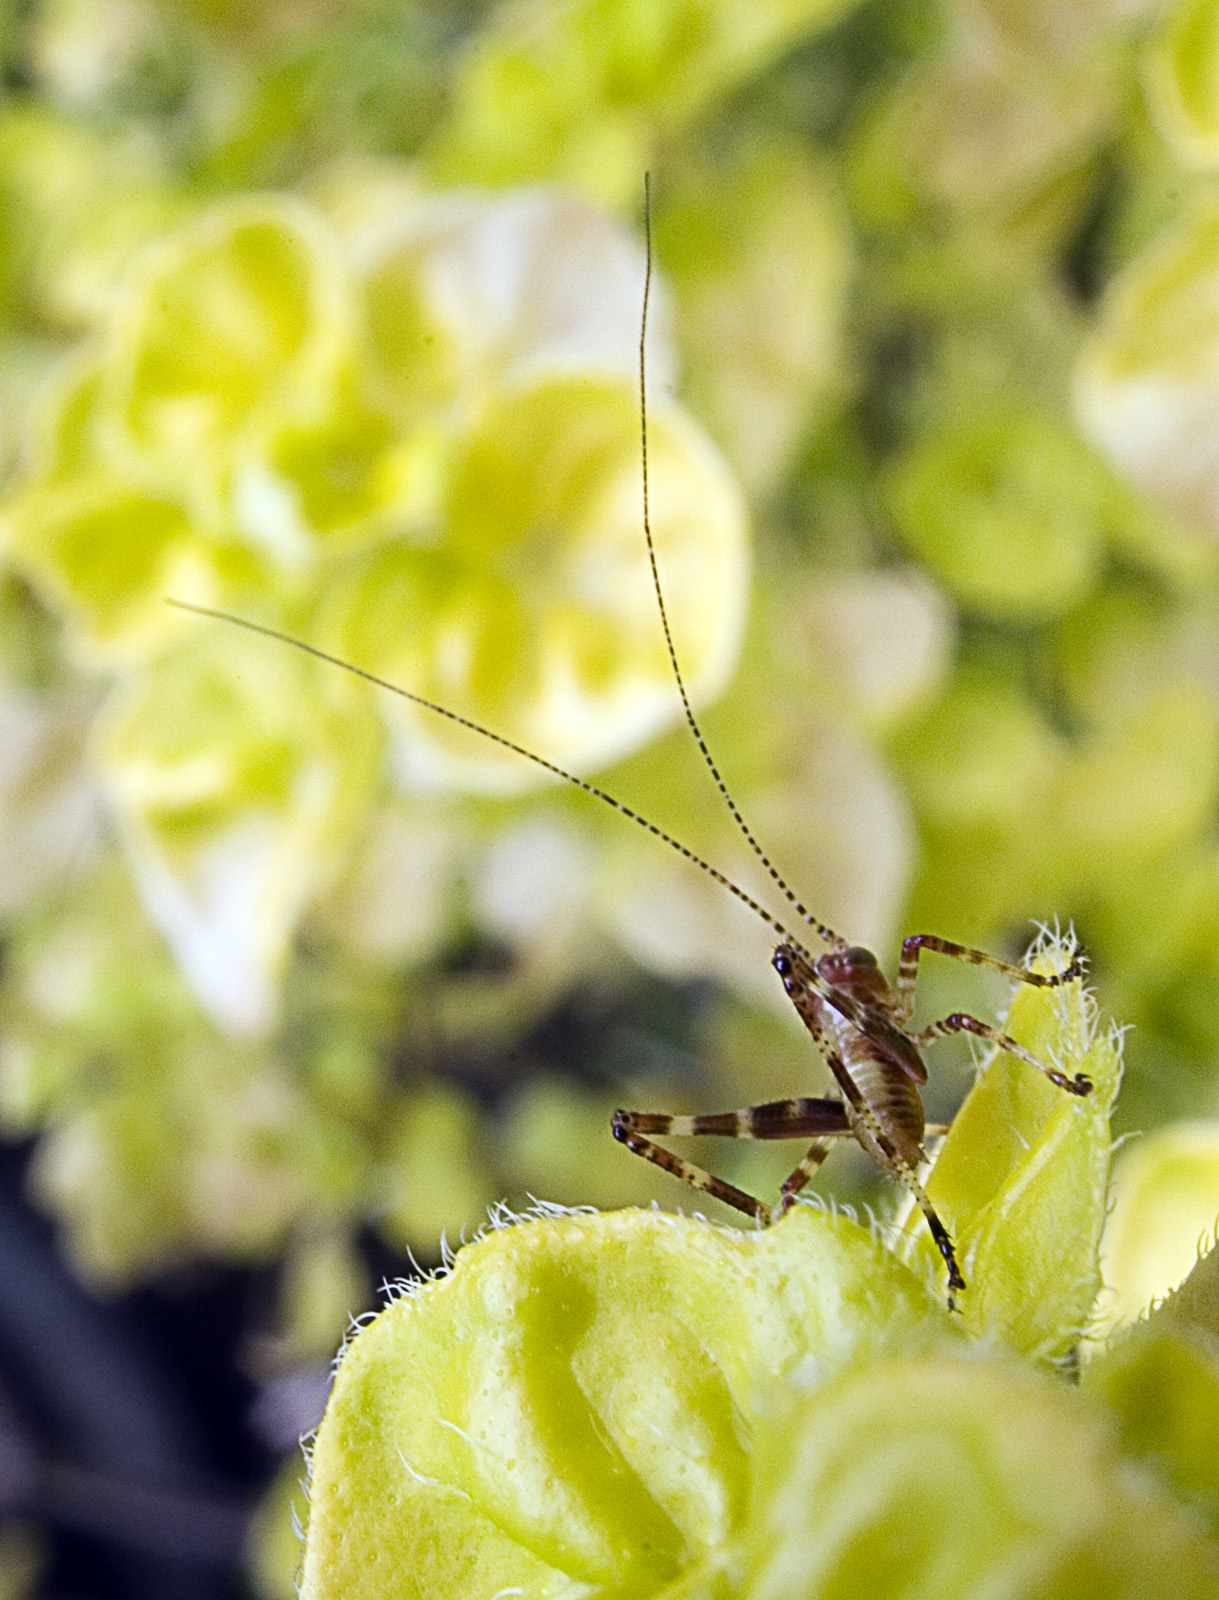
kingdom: Animalia
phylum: Arthropoda
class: Insecta
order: Orthoptera
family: Tettigoniidae
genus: Caedicia
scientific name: Caedicia simplex
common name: Common garden katydid
